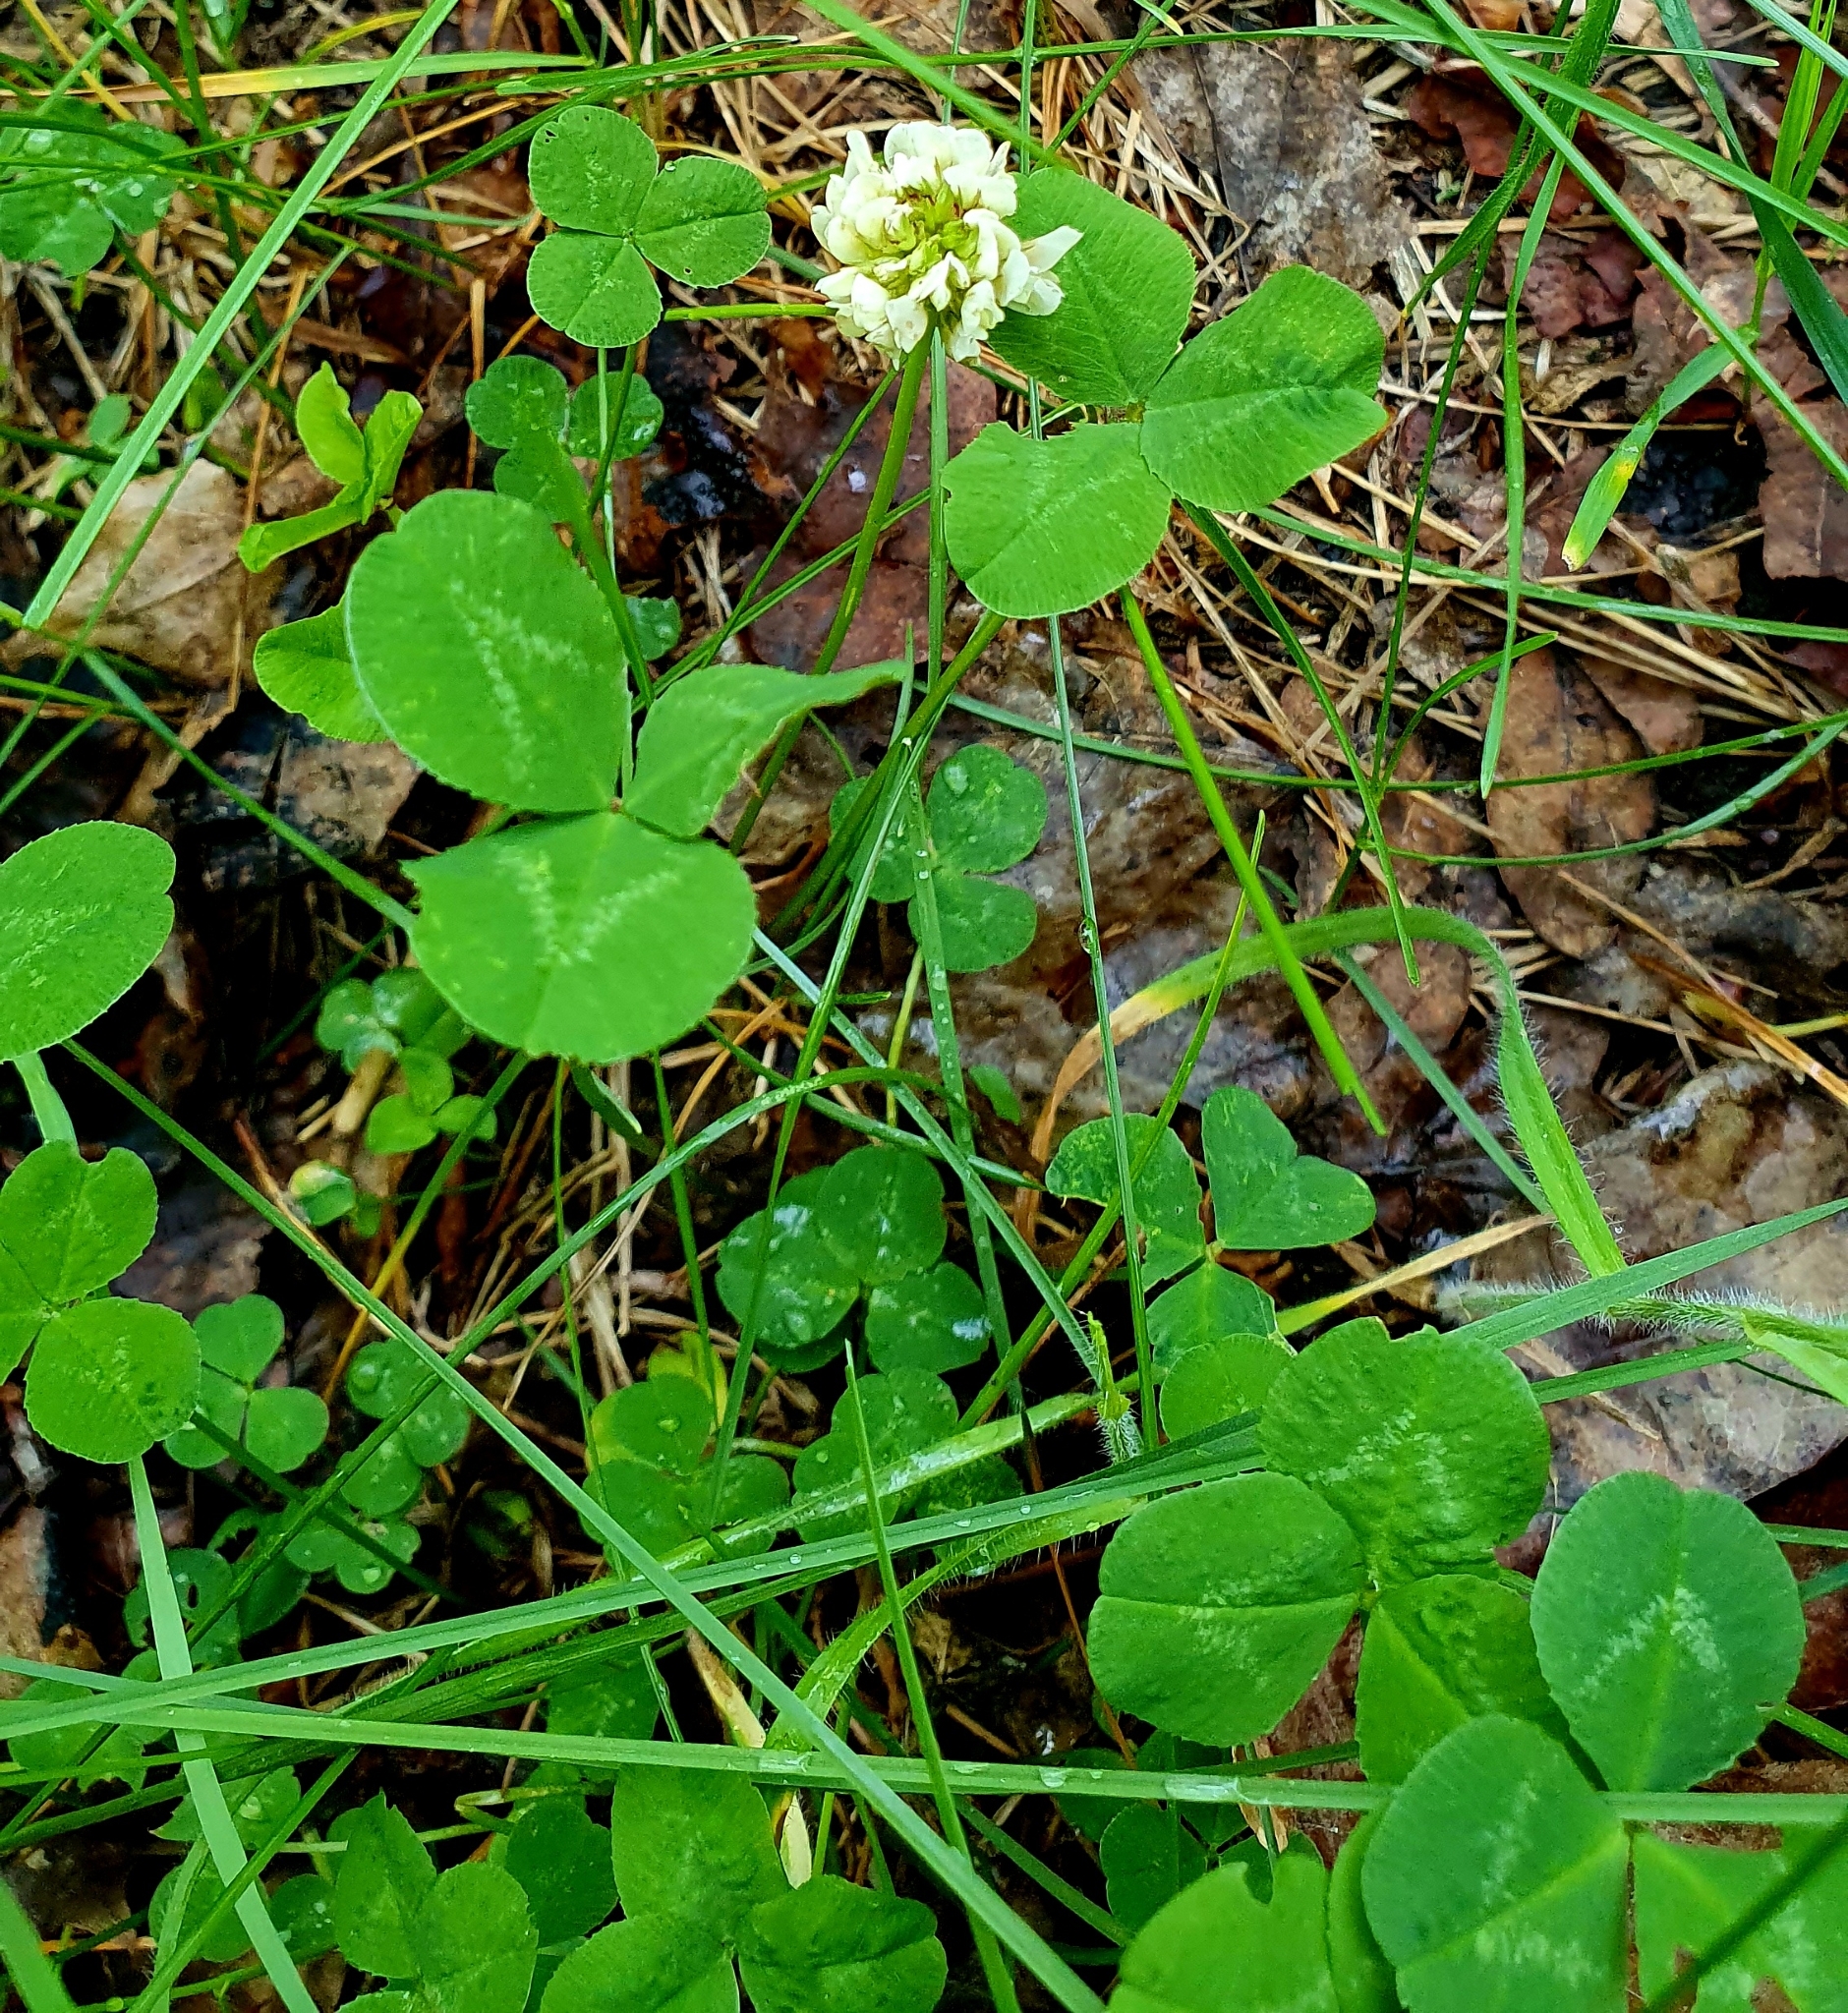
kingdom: Plantae
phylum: Tracheophyta
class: Magnoliopsida
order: Fabales
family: Fabaceae
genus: Trifolium
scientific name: Trifolium repens
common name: White clover
